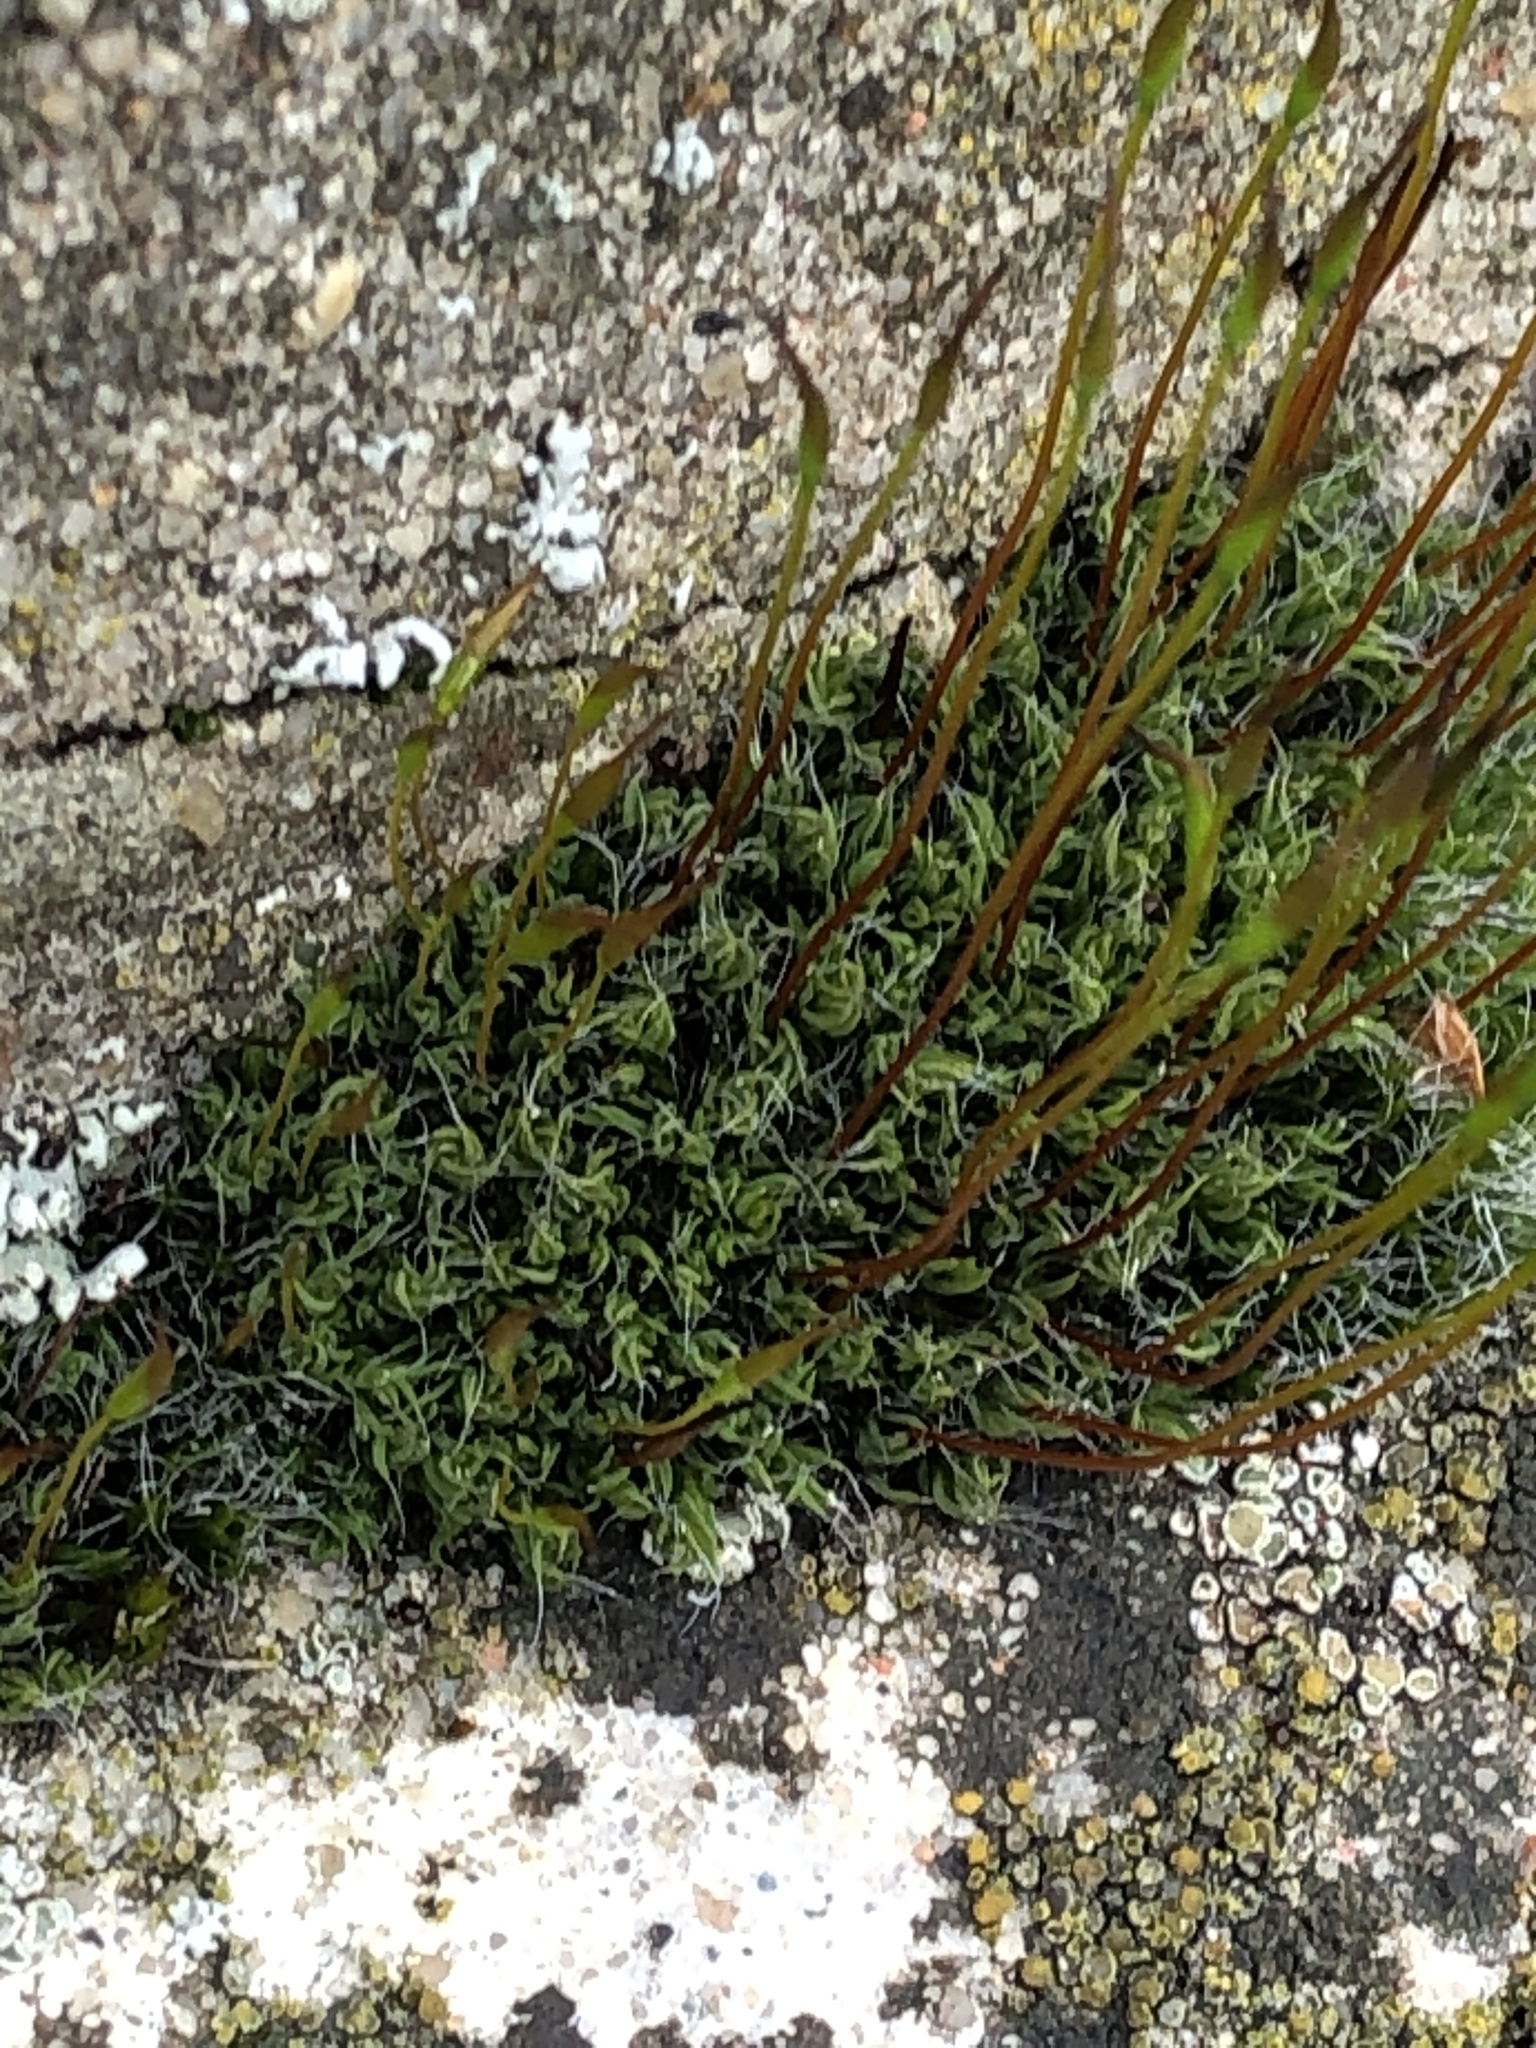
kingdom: Plantae
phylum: Bryophyta
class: Bryopsida
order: Pottiales
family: Pottiaceae
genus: Tortula
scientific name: Tortula muralis
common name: Wall screw-moss
